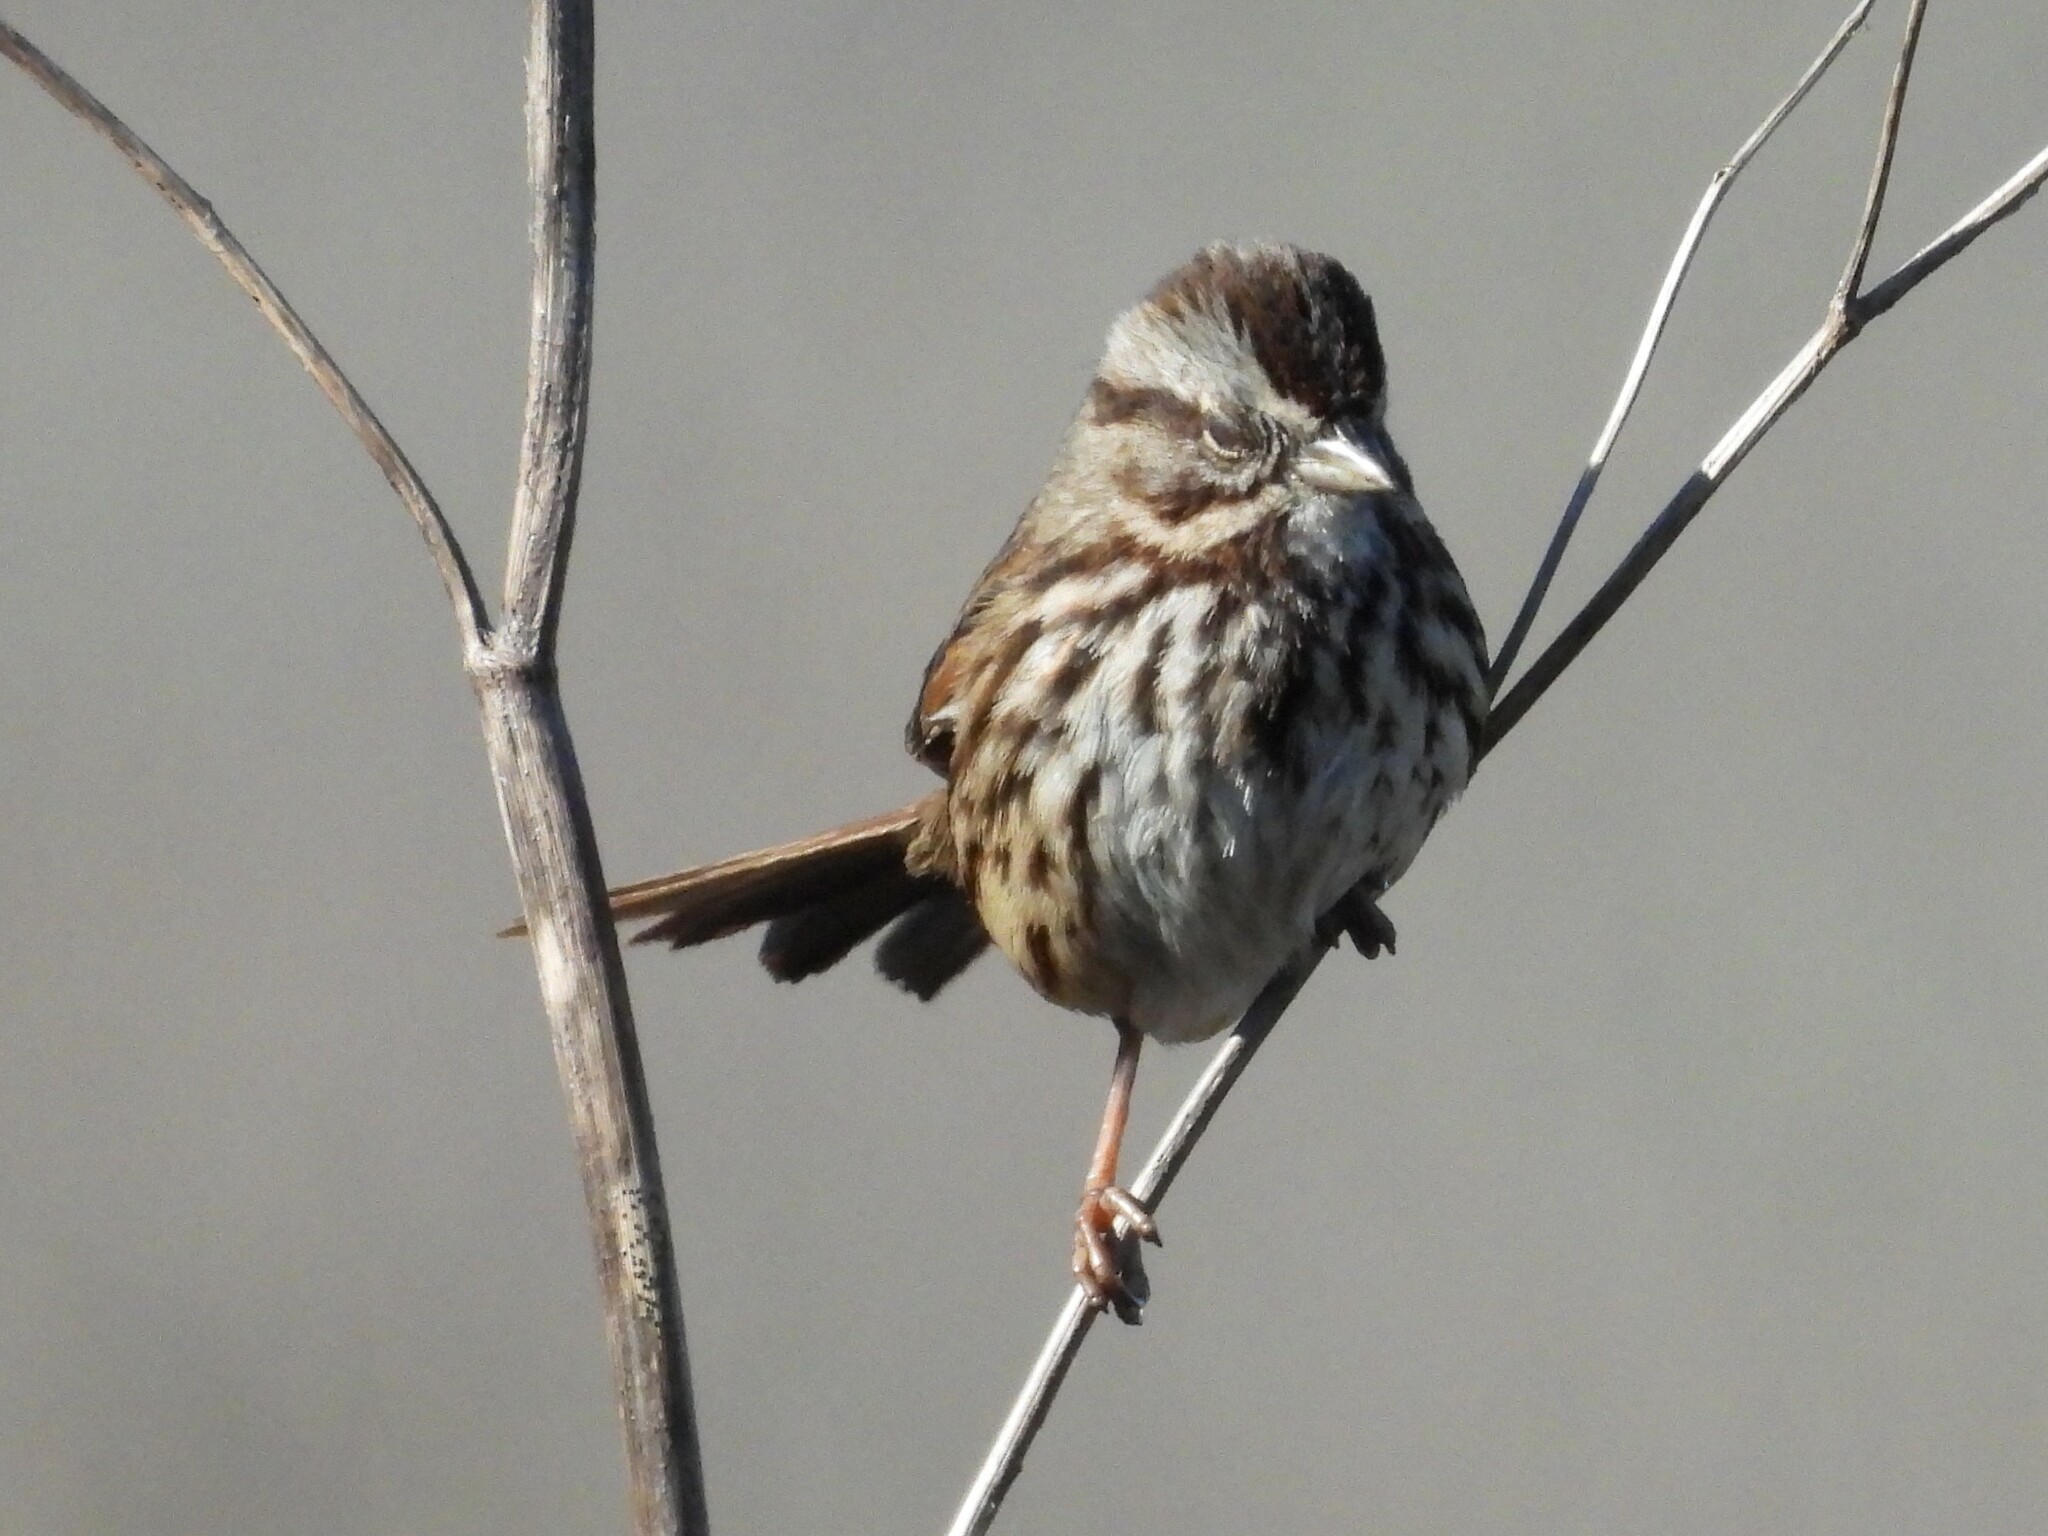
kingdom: Animalia
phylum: Chordata
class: Aves
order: Passeriformes
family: Passerellidae
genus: Melospiza
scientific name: Melospiza melodia
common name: Song sparrow
